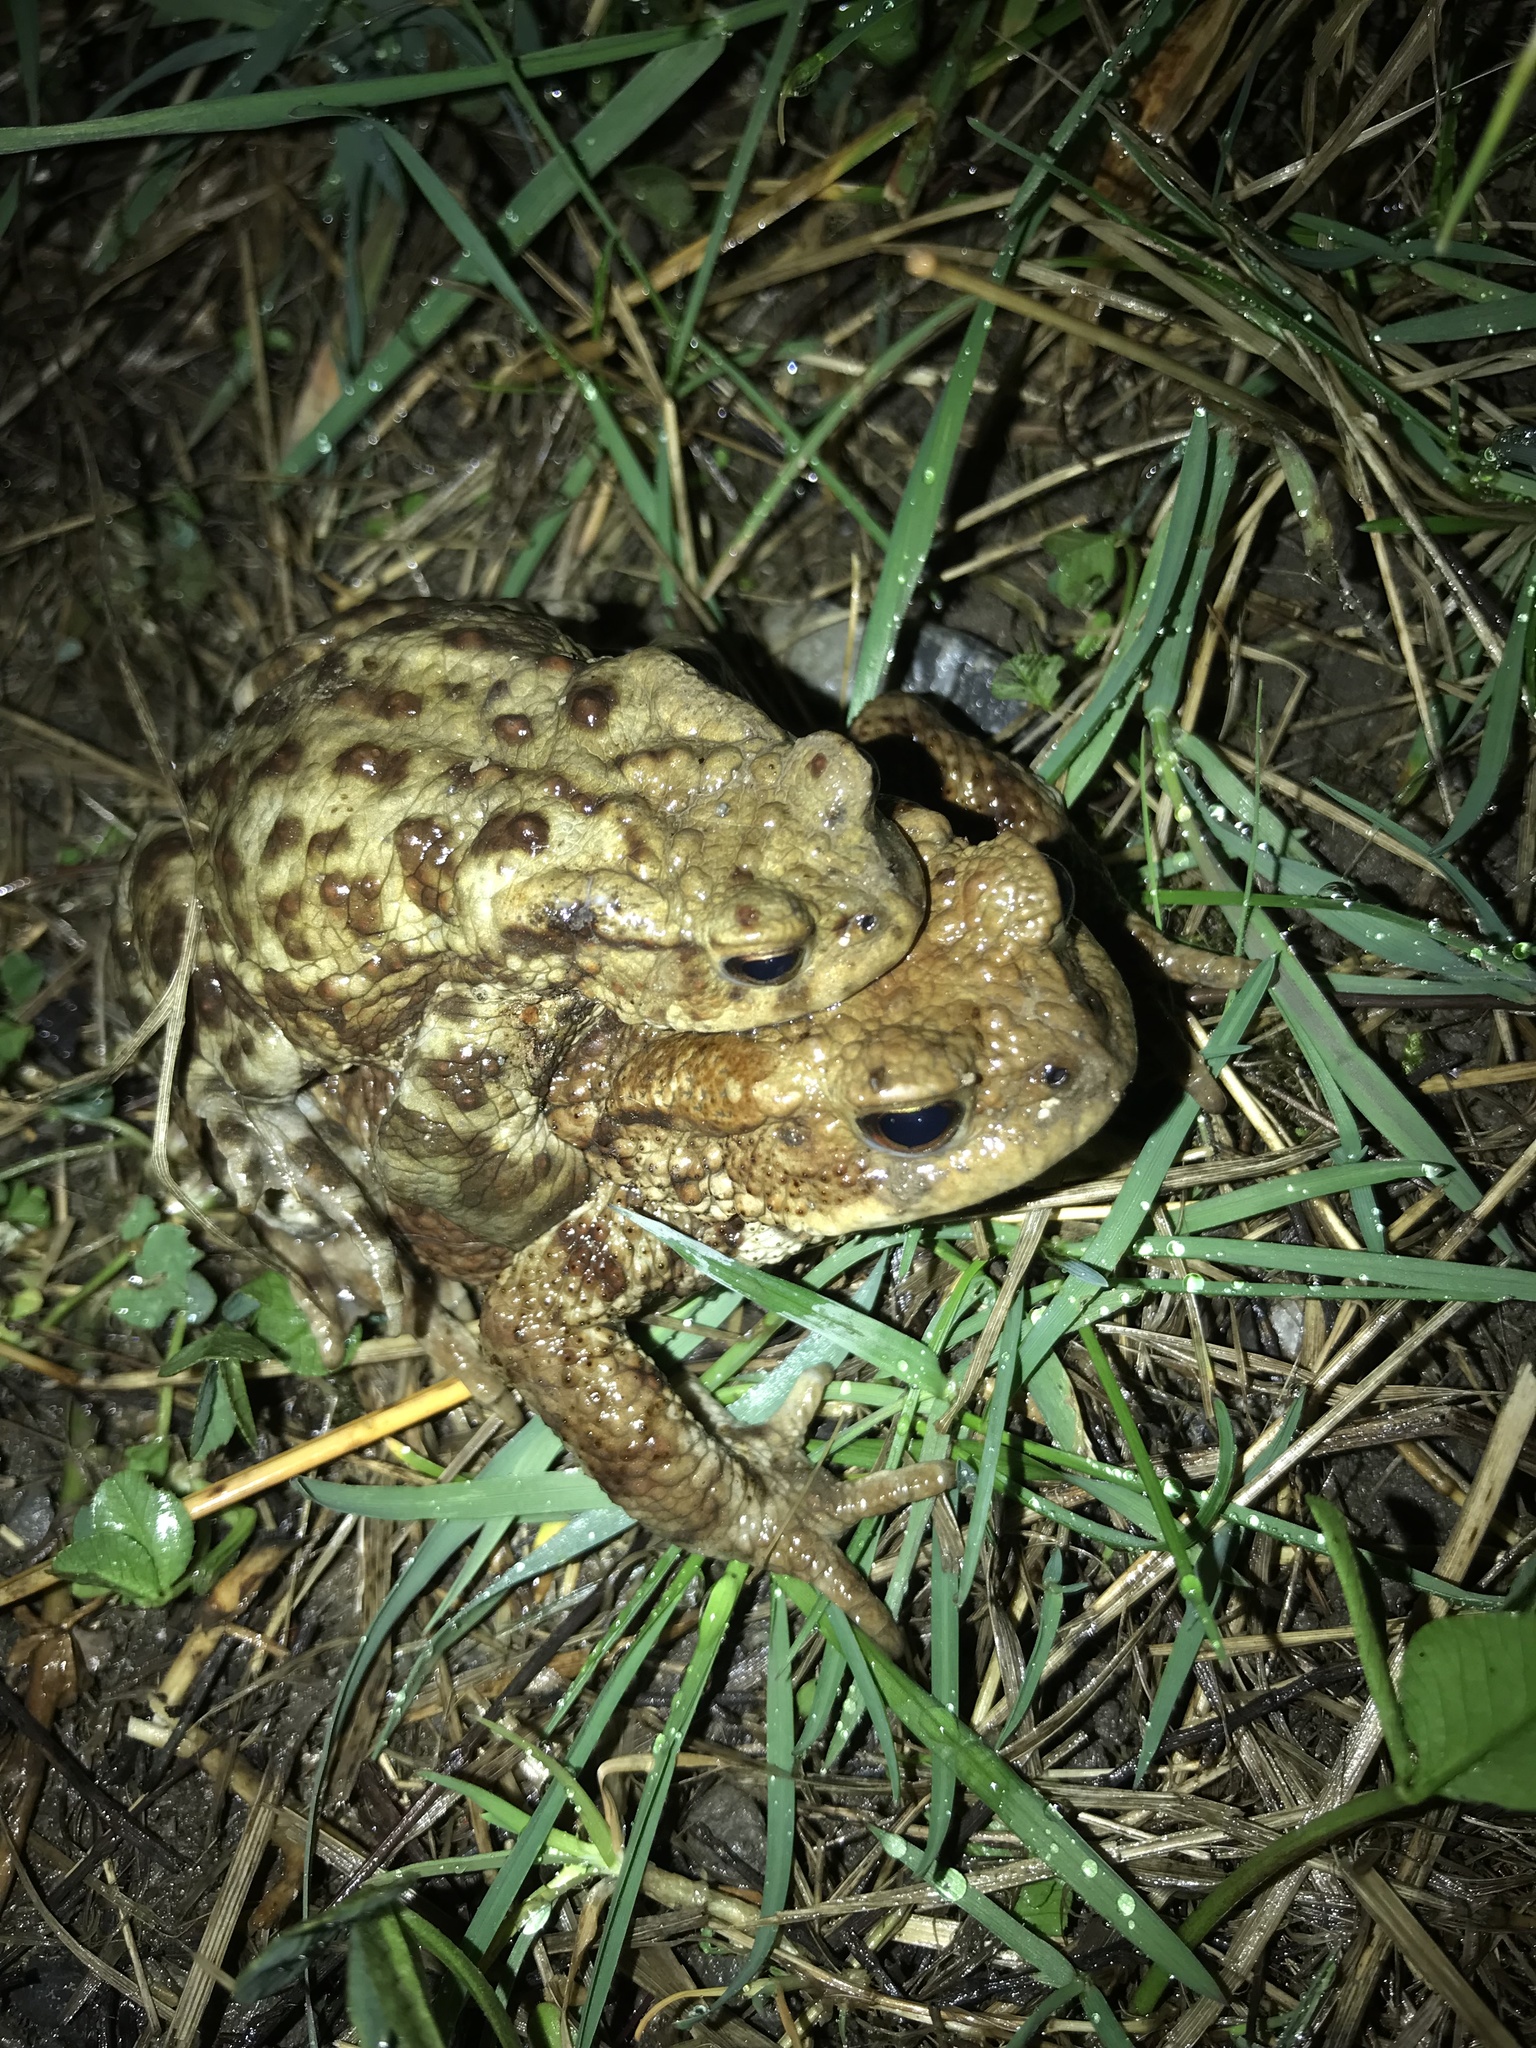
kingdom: Animalia
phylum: Chordata
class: Amphibia
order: Anura
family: Bufonidae
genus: Bufo
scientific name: Bufo bufo
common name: Common toad
